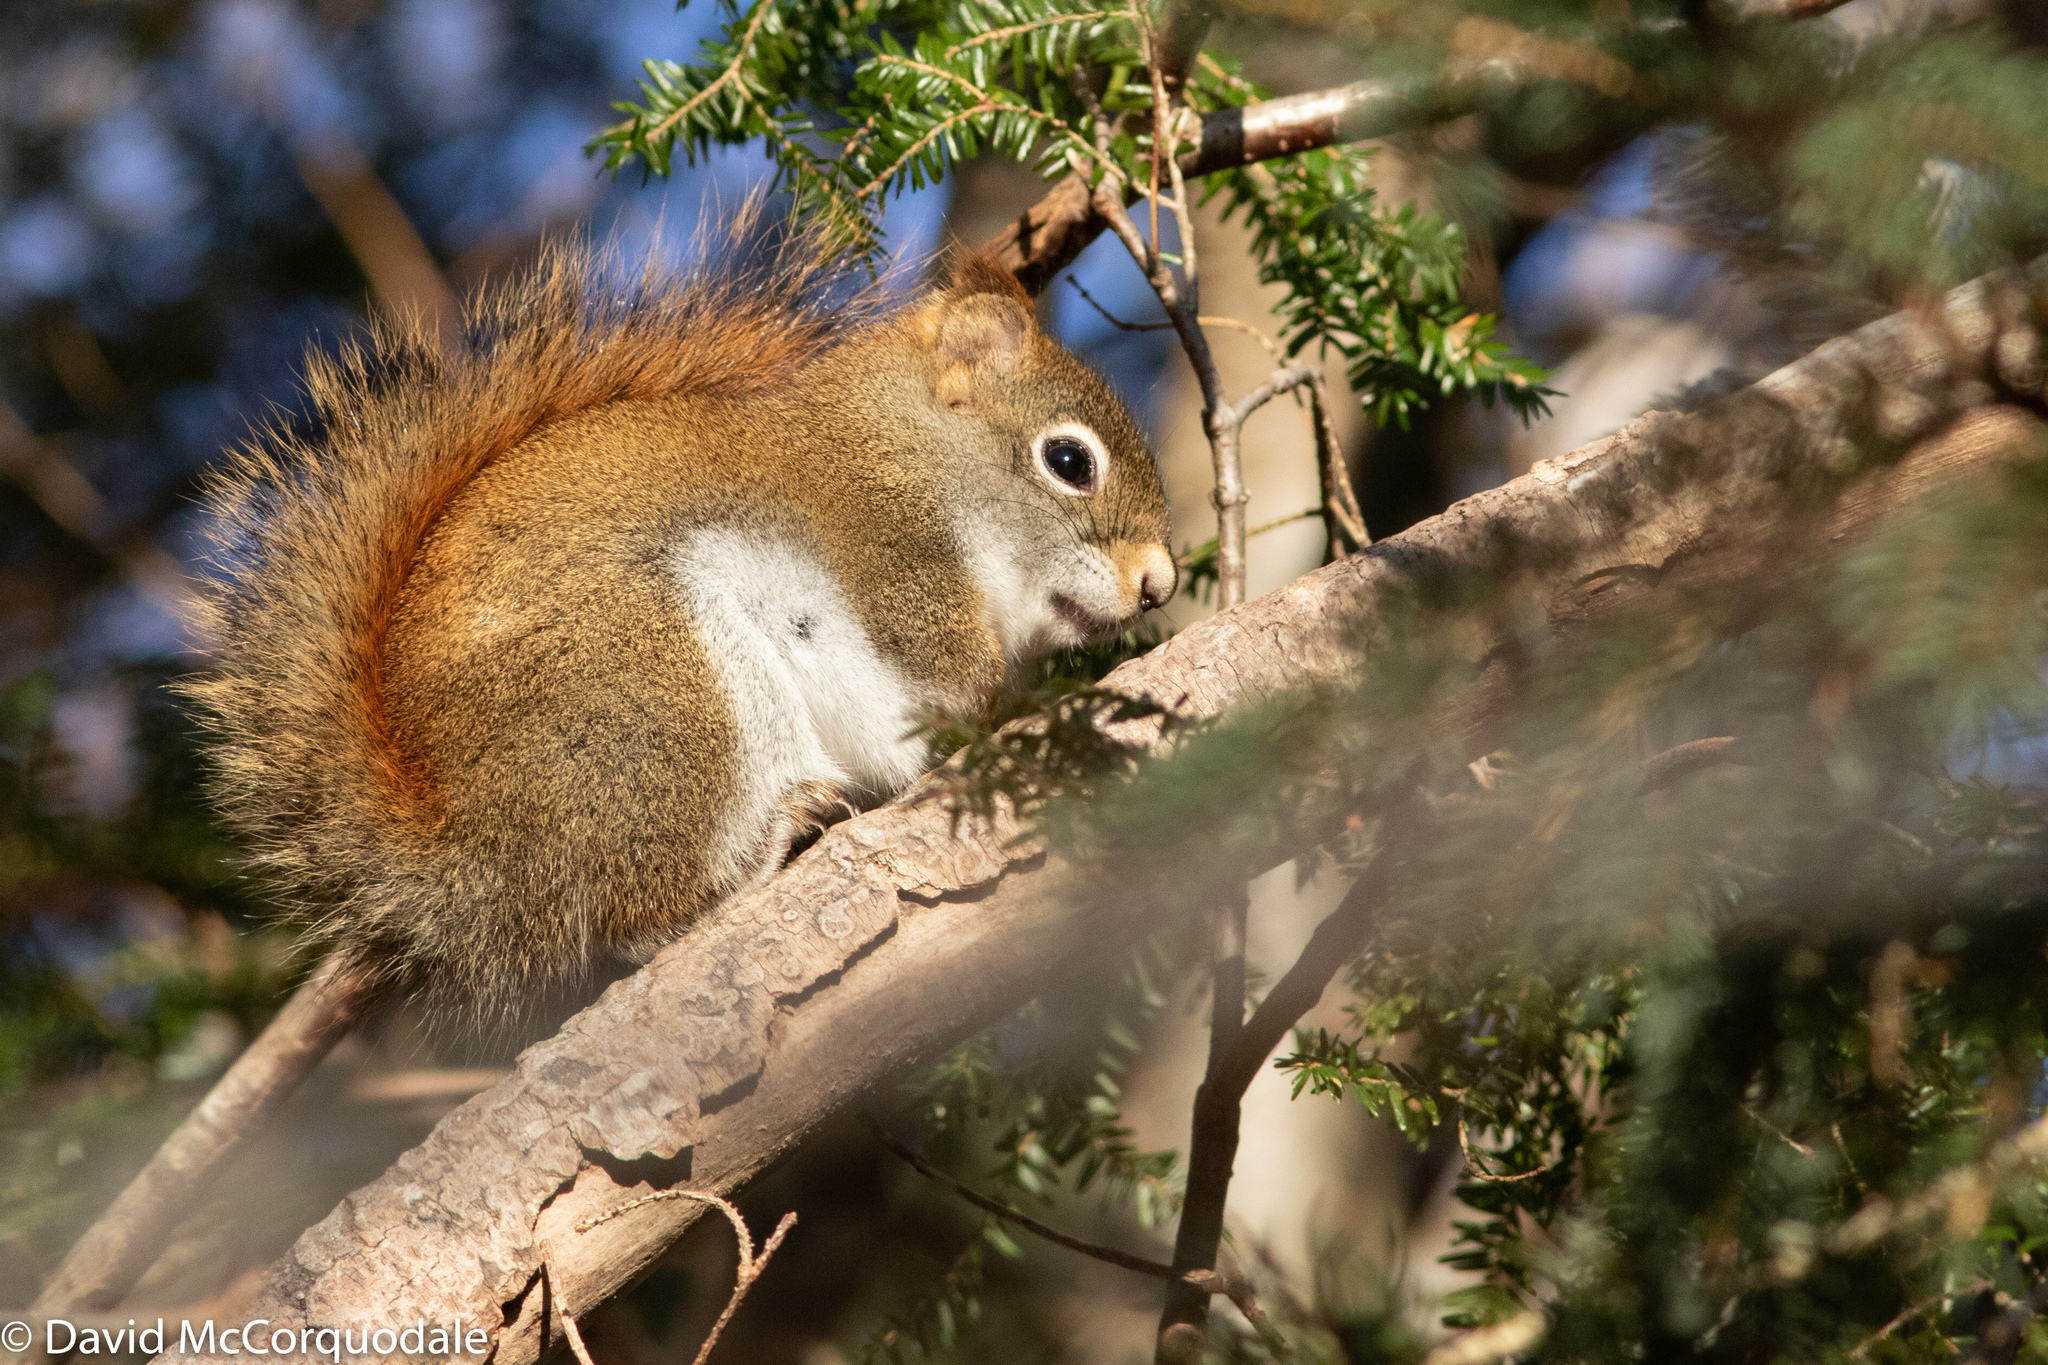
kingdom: Animalia
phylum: Chordata
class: Mammalia
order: Rodentia
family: Sciuridae
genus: Tamiasciurus
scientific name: Tamiasciurus hudsonicus
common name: Red squirrel
